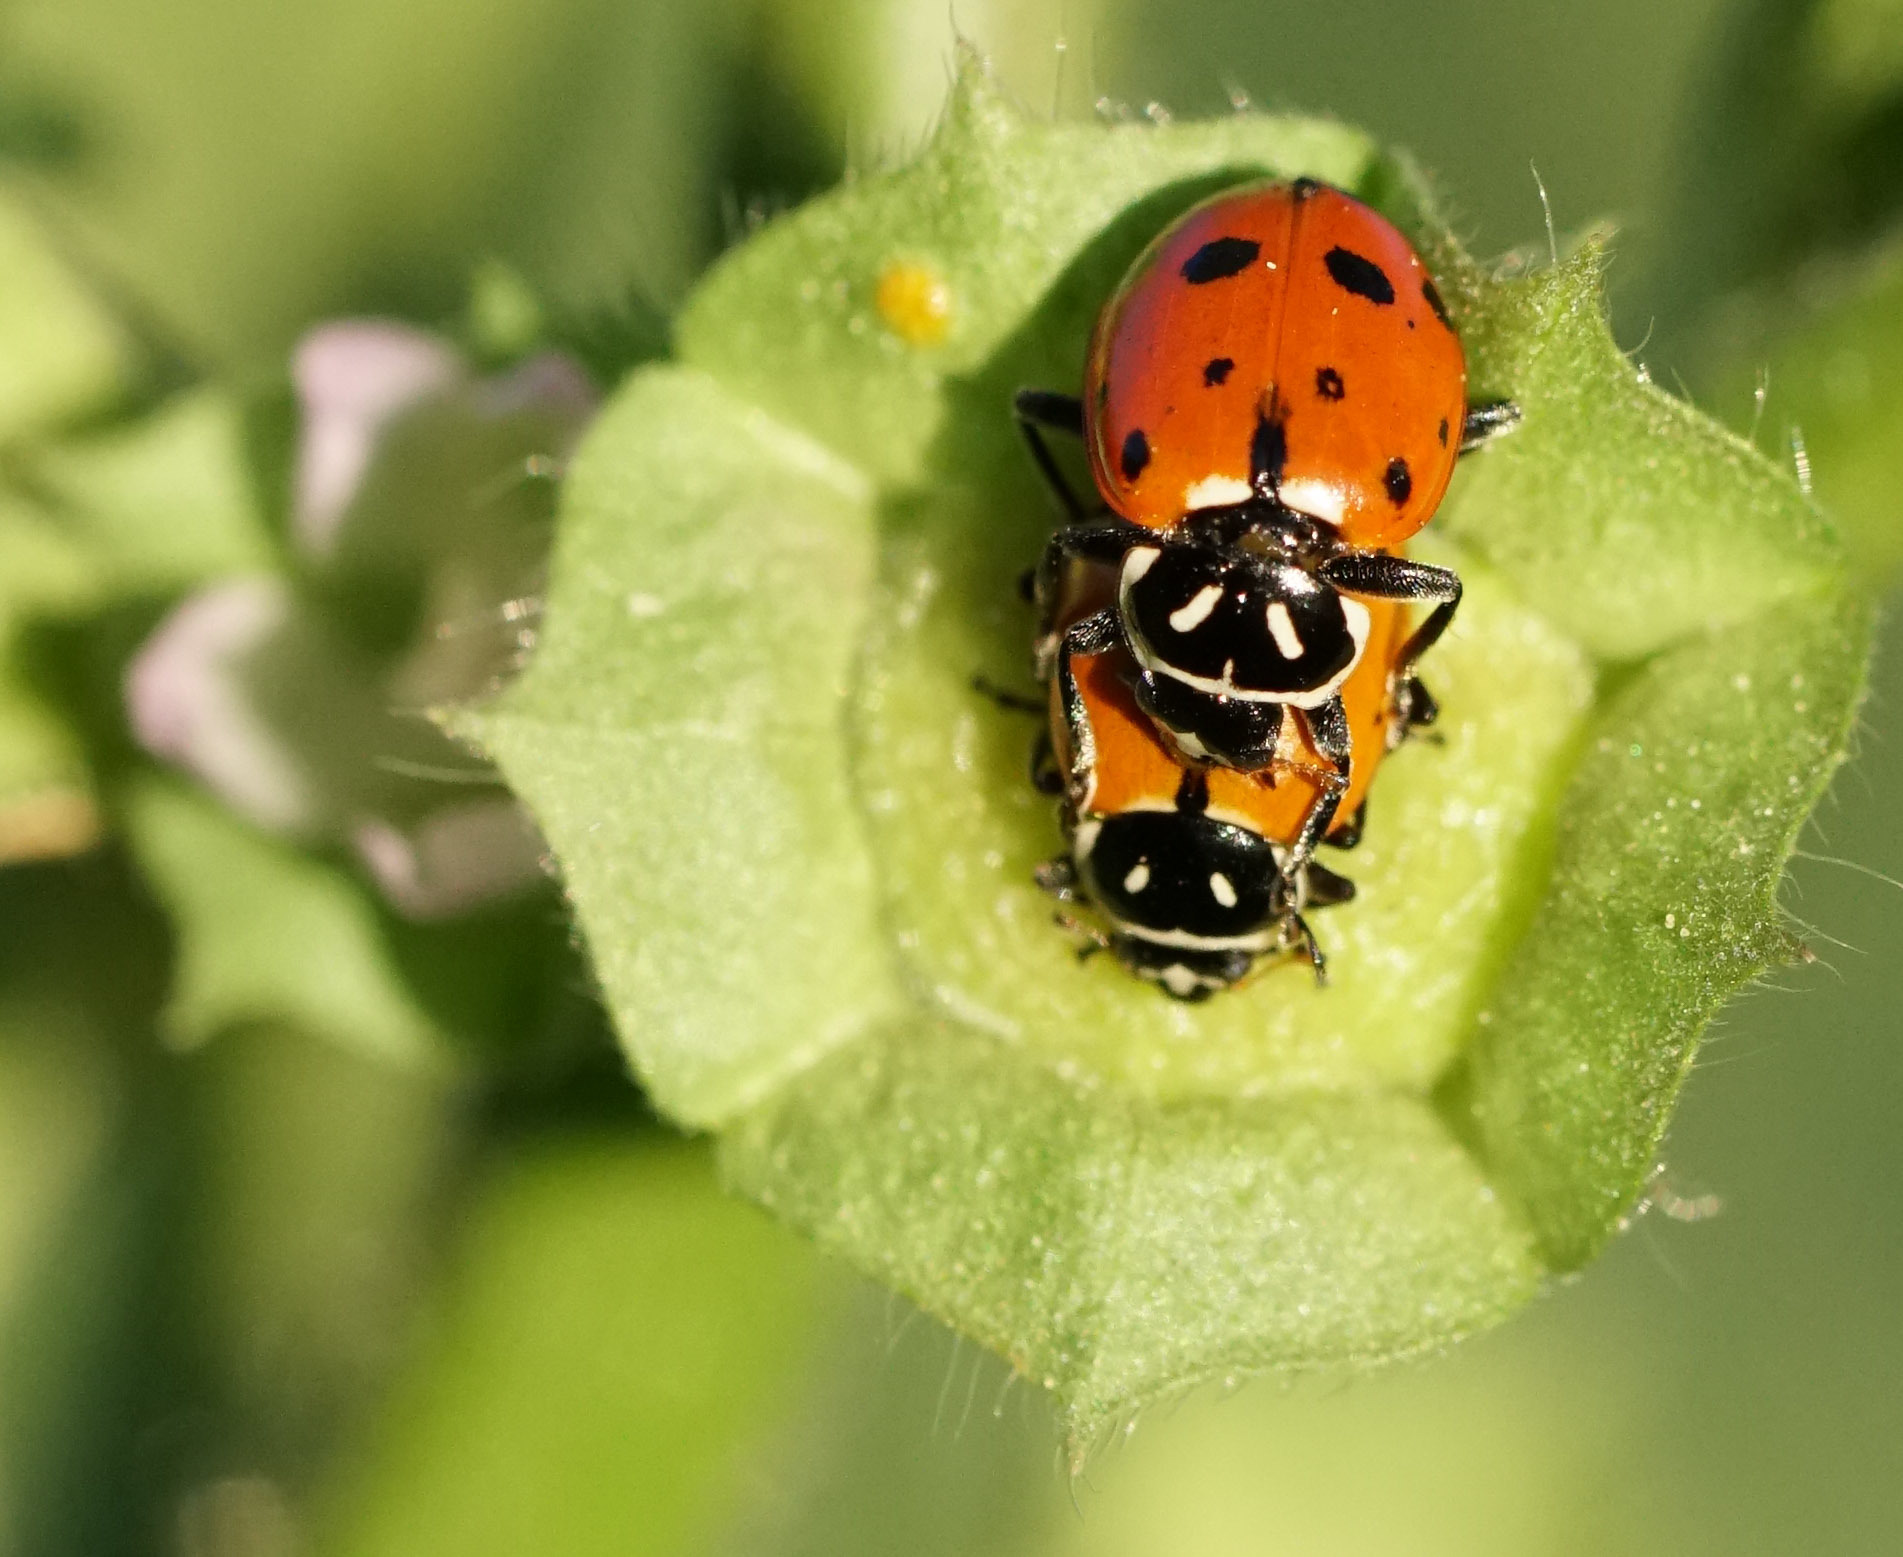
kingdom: Animalia
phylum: Arthropoda
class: Insecta
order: Coleoptera
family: Coccinellidae
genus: Hippodamia
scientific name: Hippodamia convergens
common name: Convergent lady beetle
